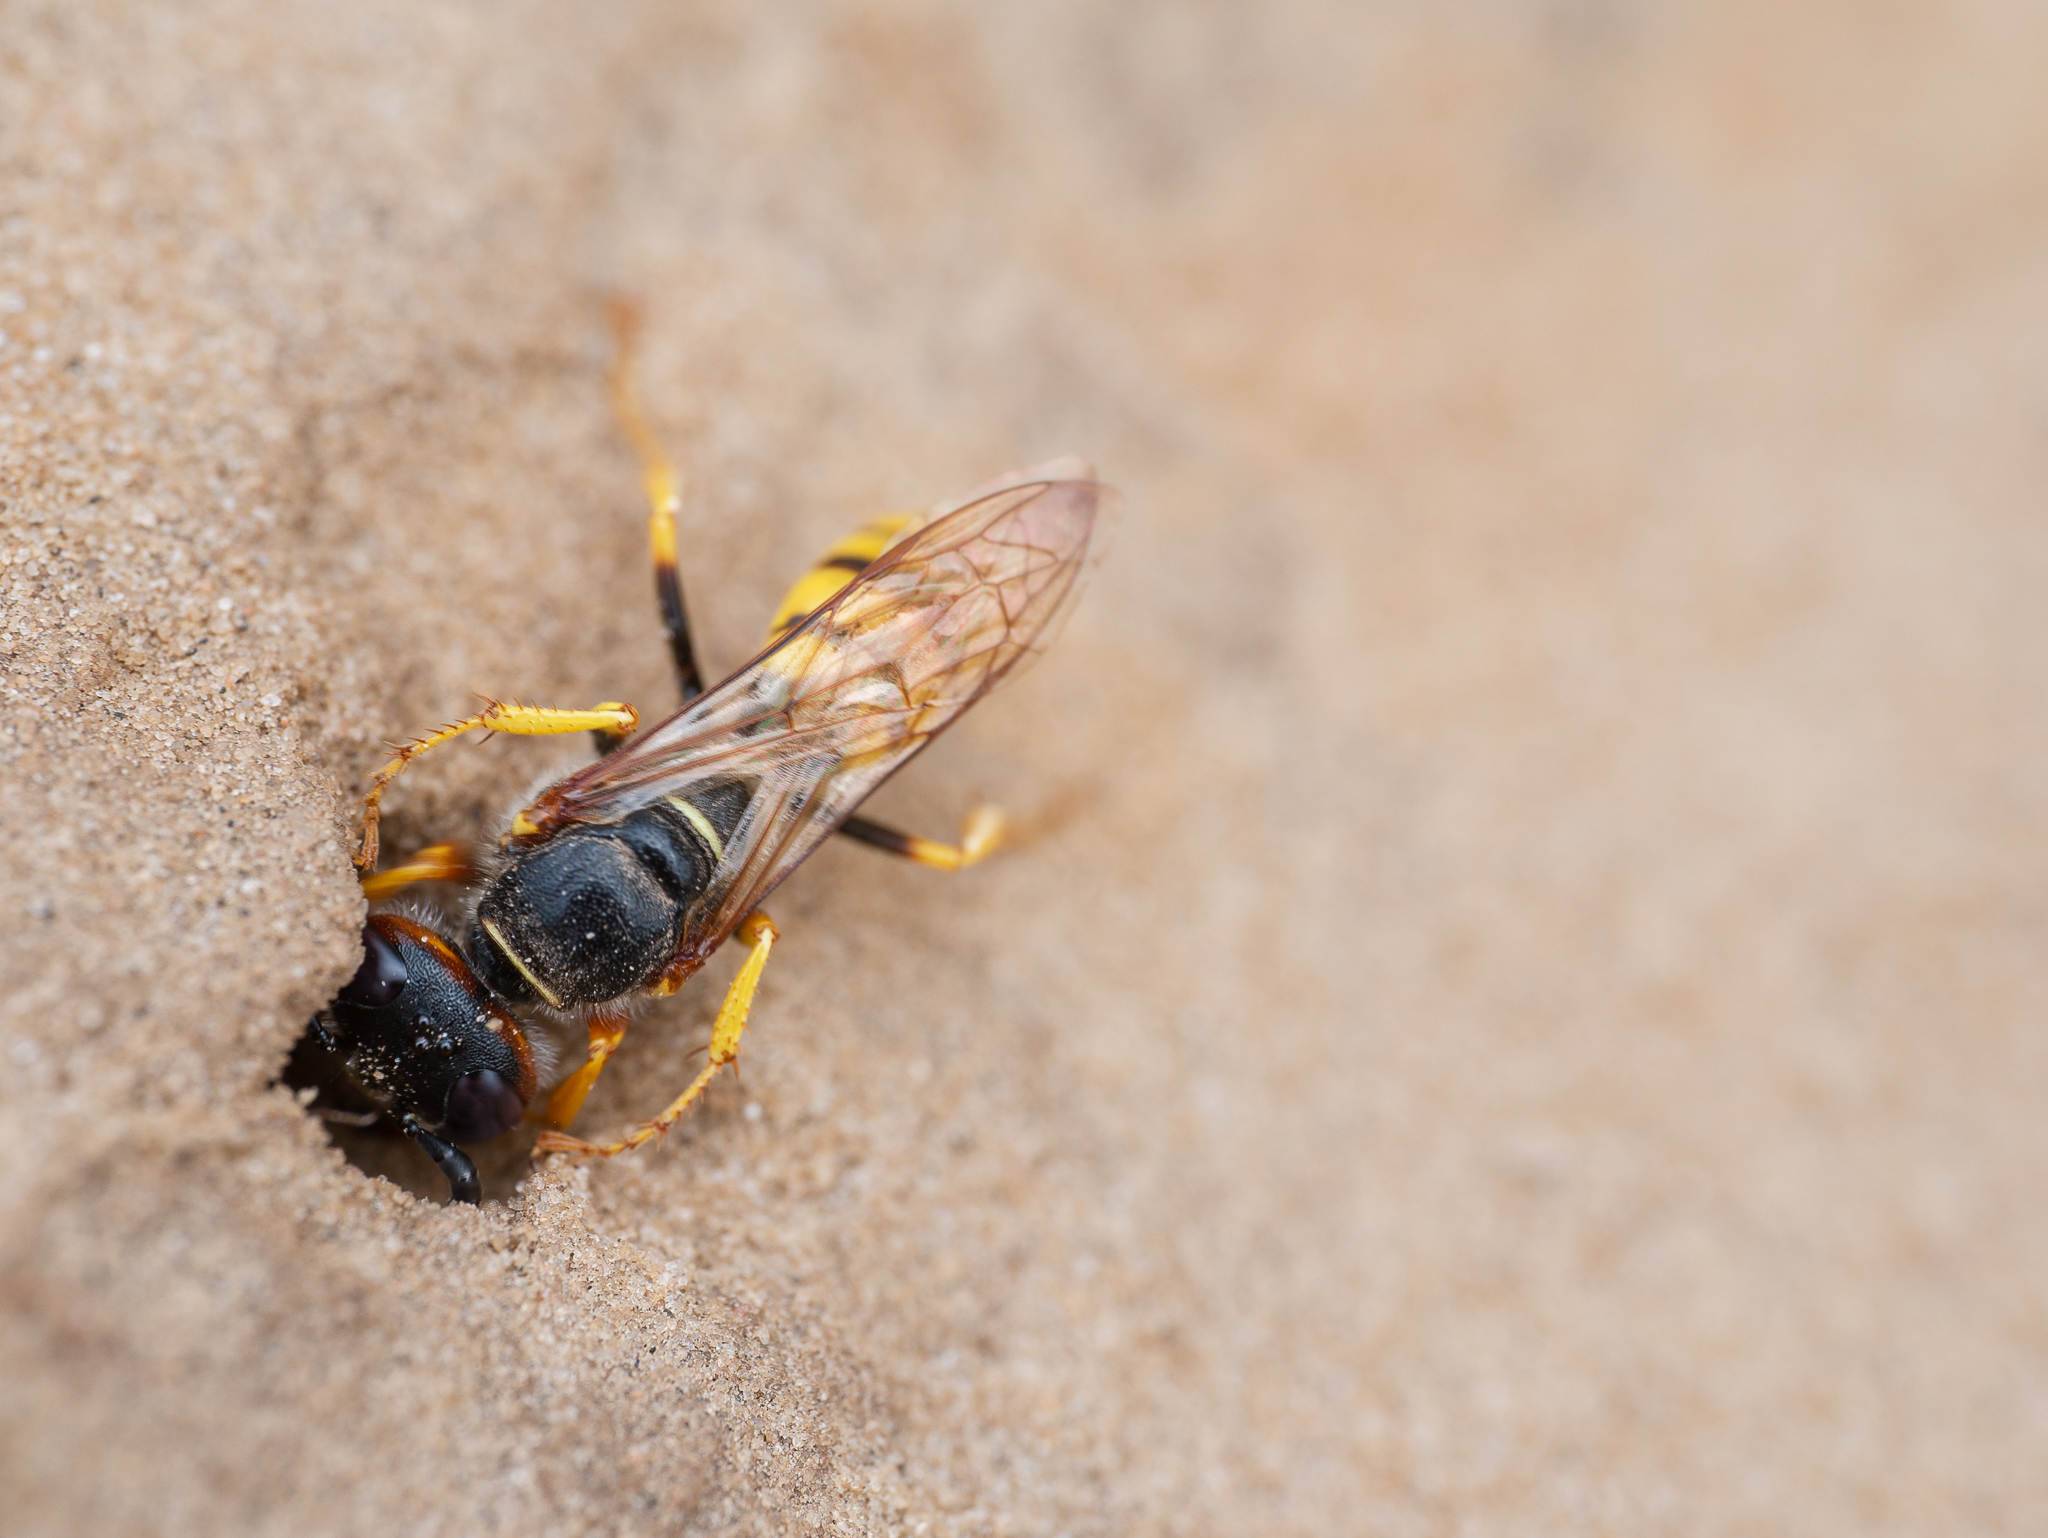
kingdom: Animalia
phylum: Arthropoda
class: Insecta
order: Hymenoptera
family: Crabronidae
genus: Philanthus
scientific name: Philanthus triangulum
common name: Bee wolf
